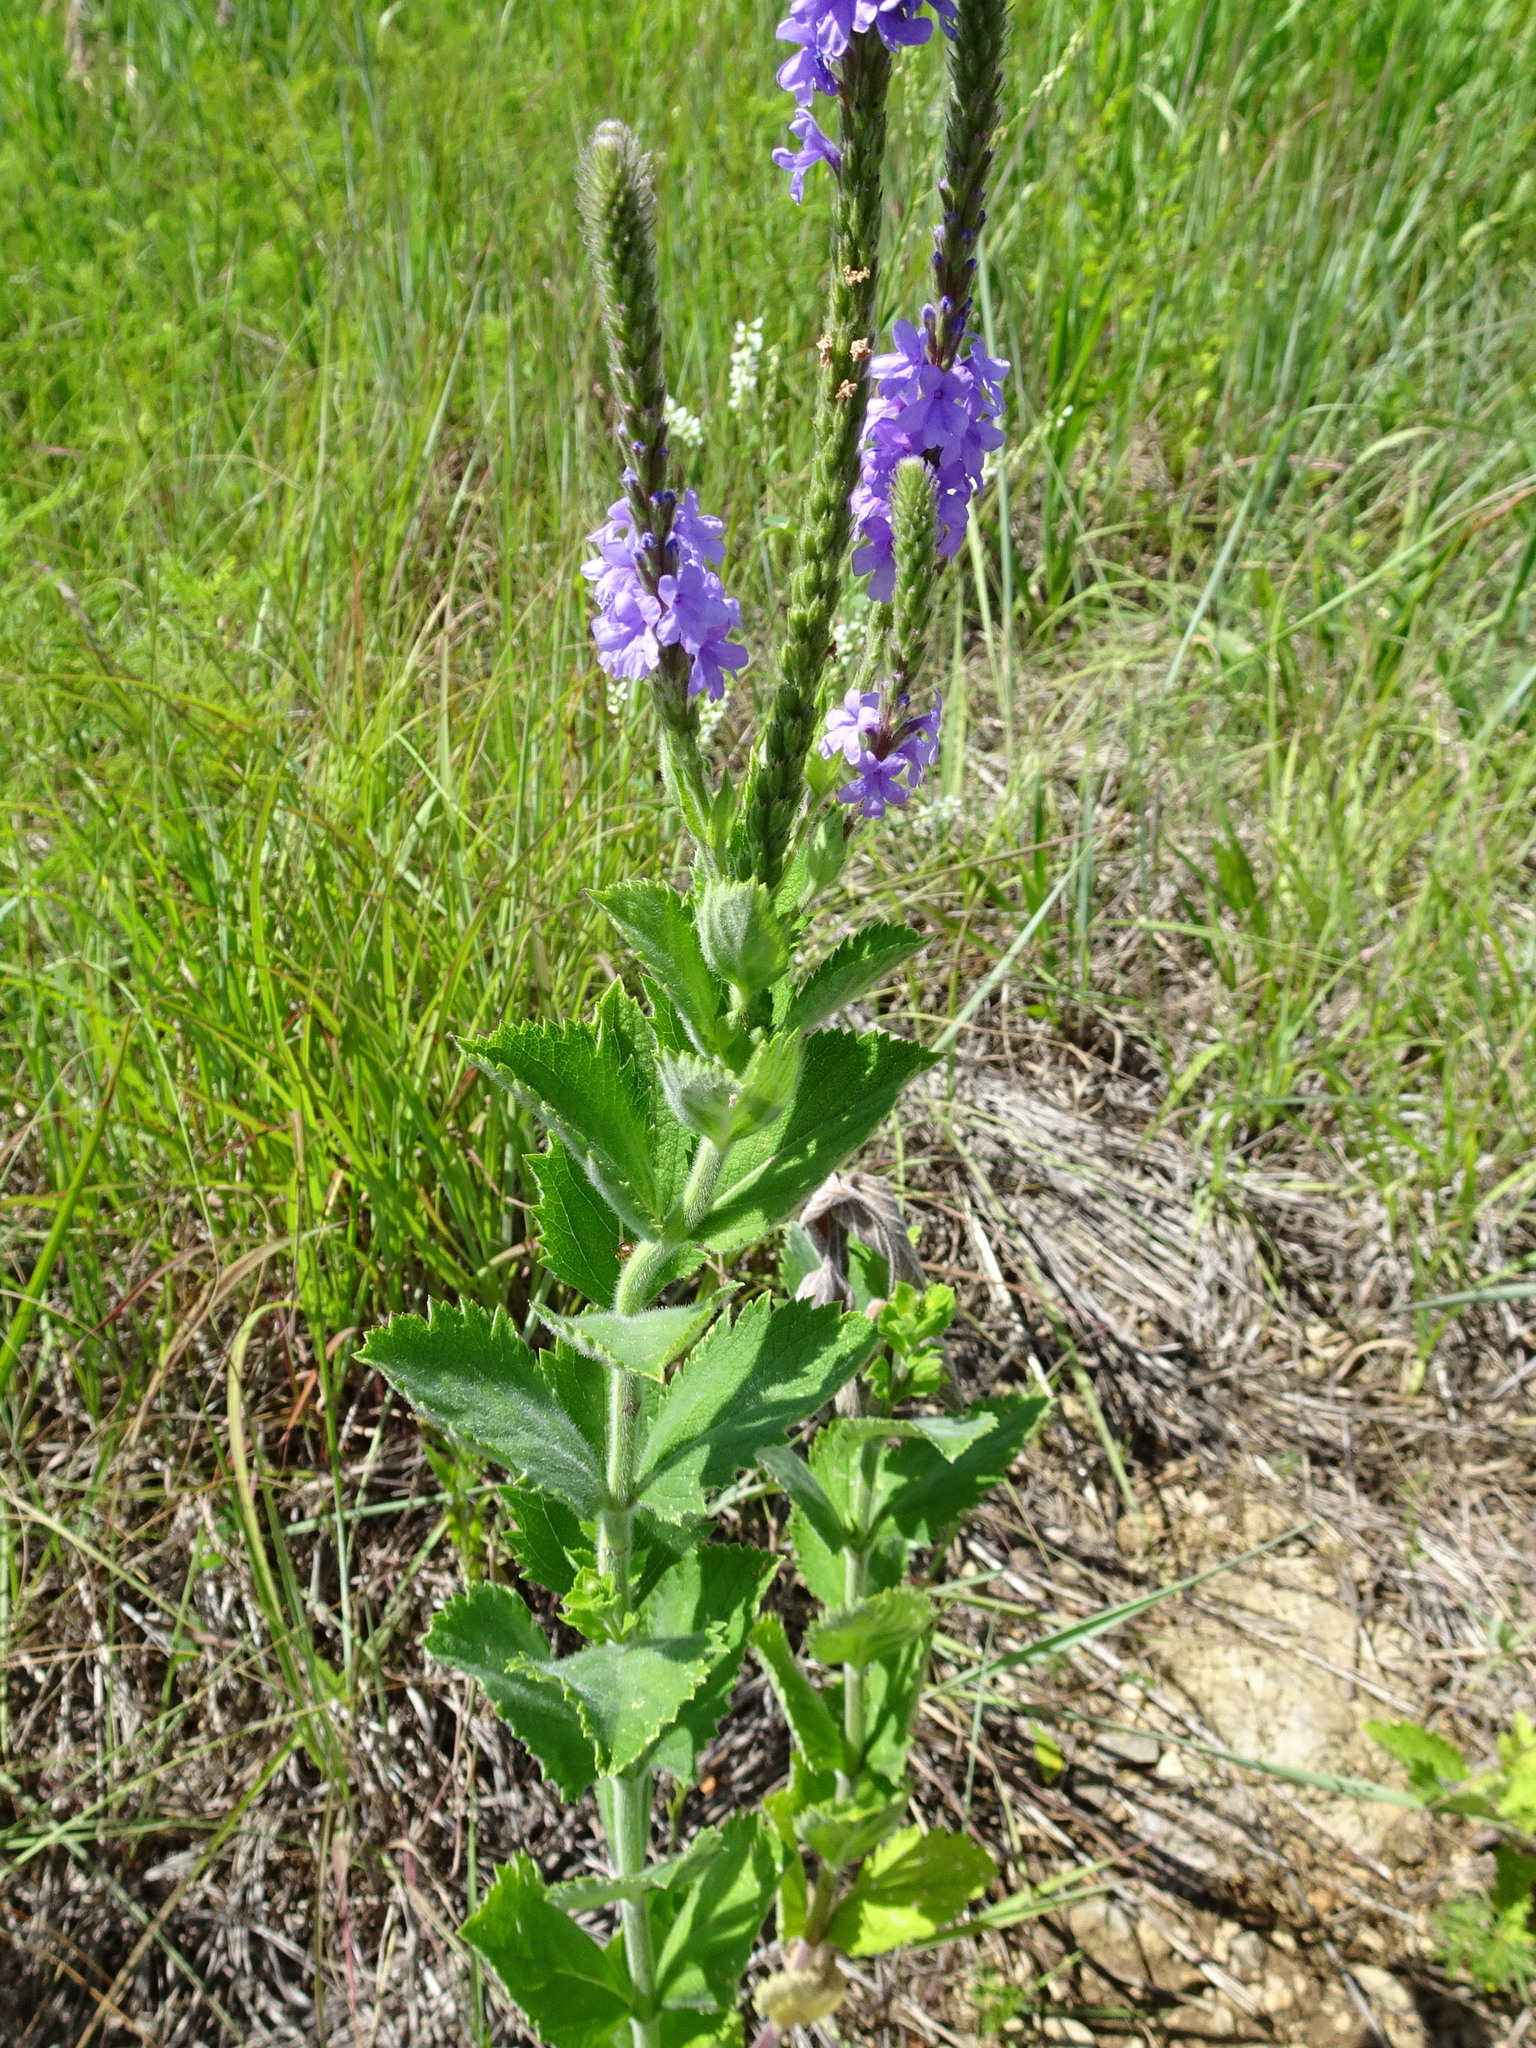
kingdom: Plantae
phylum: Tracheophyta
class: Magnoliopsida
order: Lamiales
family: Verbenaceae
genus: Verbena
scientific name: Verbena stricta
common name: Hoary vervain
